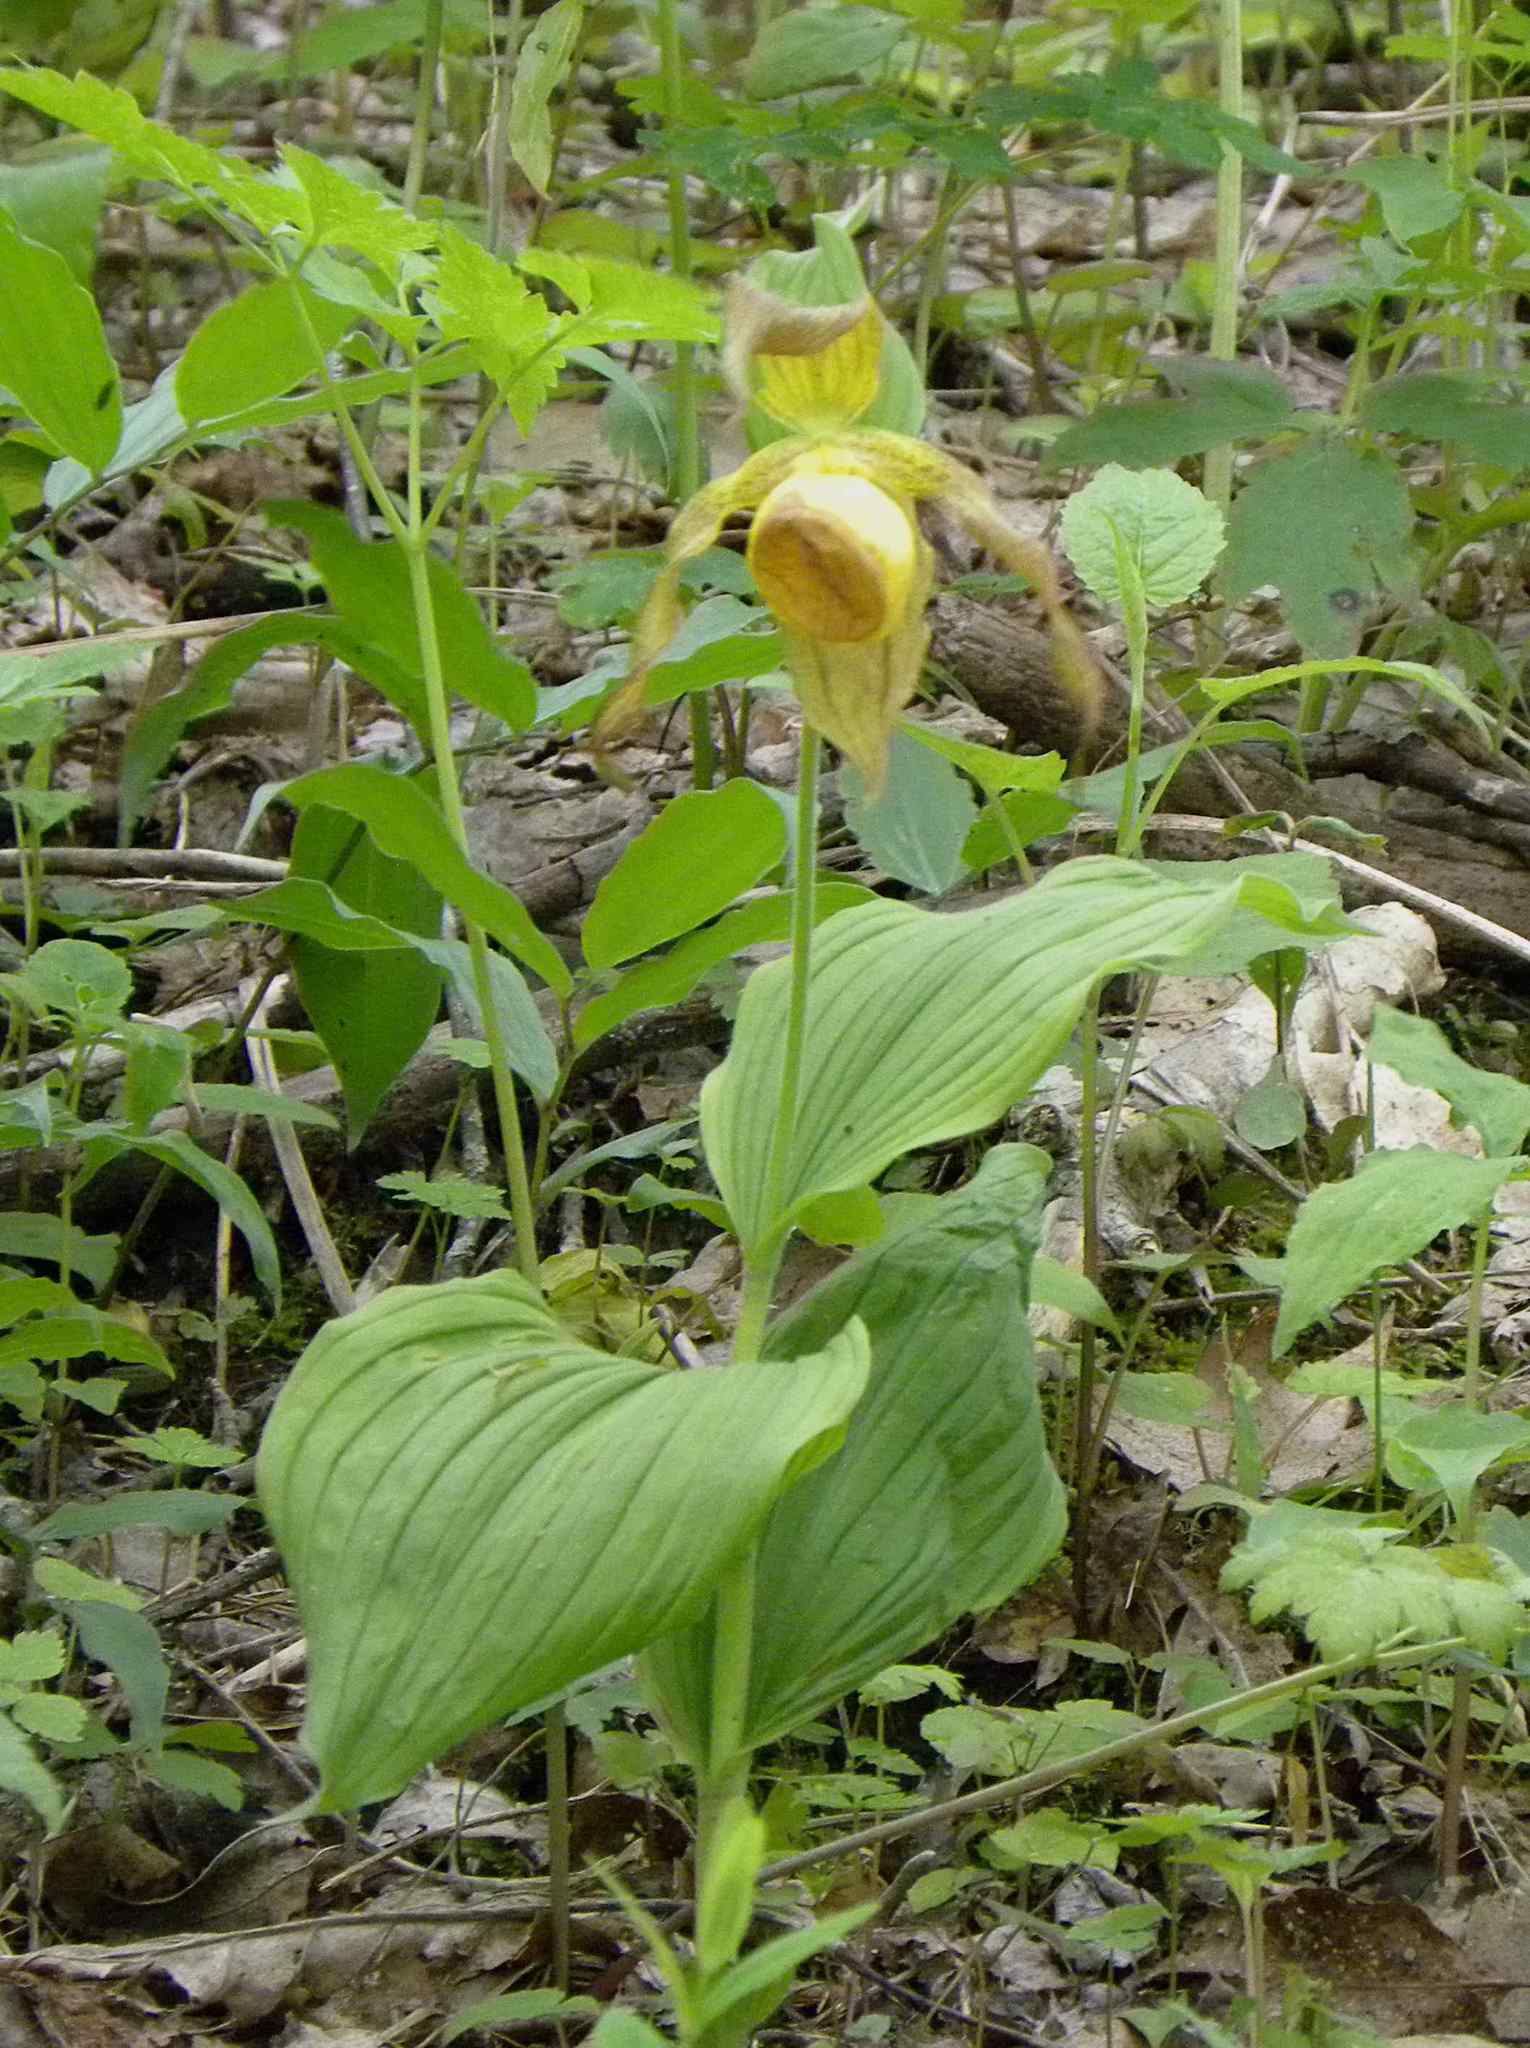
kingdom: Plantae
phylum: Tracheophyta
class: Liliopsida
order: Asparagales
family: Orchidaceae
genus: Cypripedium
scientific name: Cypripedium parviflorum
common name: American yellow lady's-slipper
